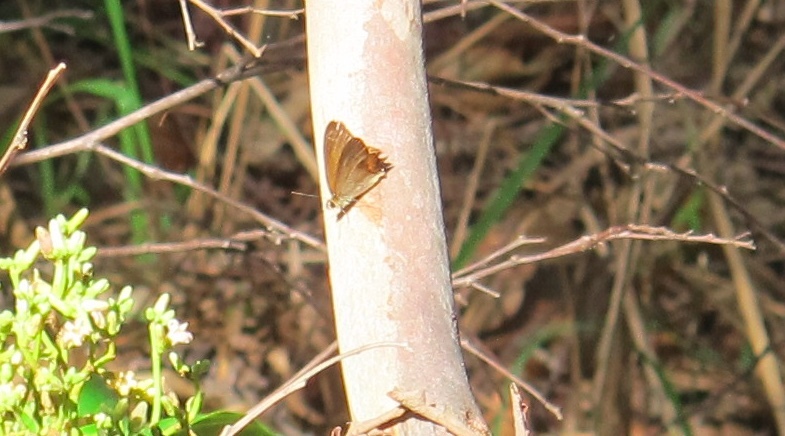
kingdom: Animalia
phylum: Arthropoda
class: Insecta
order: Lepidoptera
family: Nymphalidae
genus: Hypocysta
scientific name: Hypocysta metirius
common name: Brown ringlet
